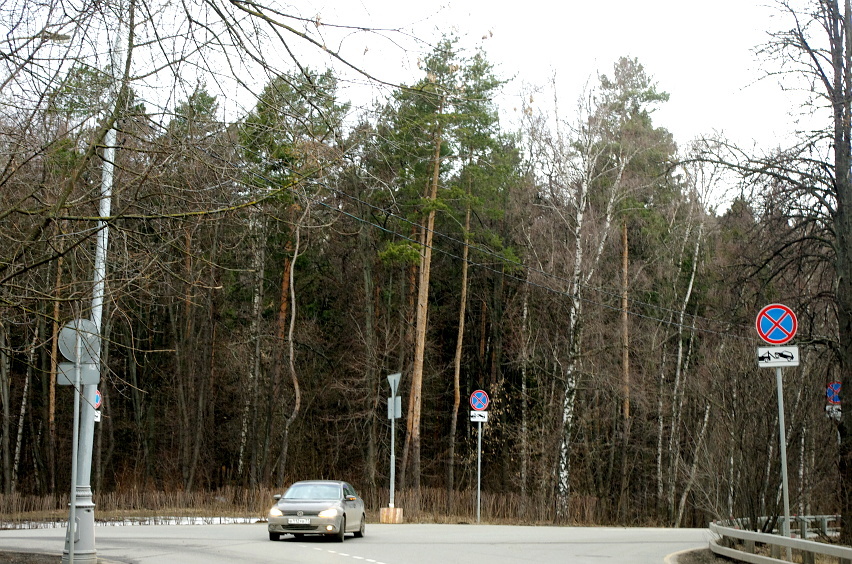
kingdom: Plantae
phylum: Tracheophyta
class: Pinopsida
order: Pinales
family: Pinaceae
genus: Pinus
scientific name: Pinus sylvestris
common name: Scots pine
